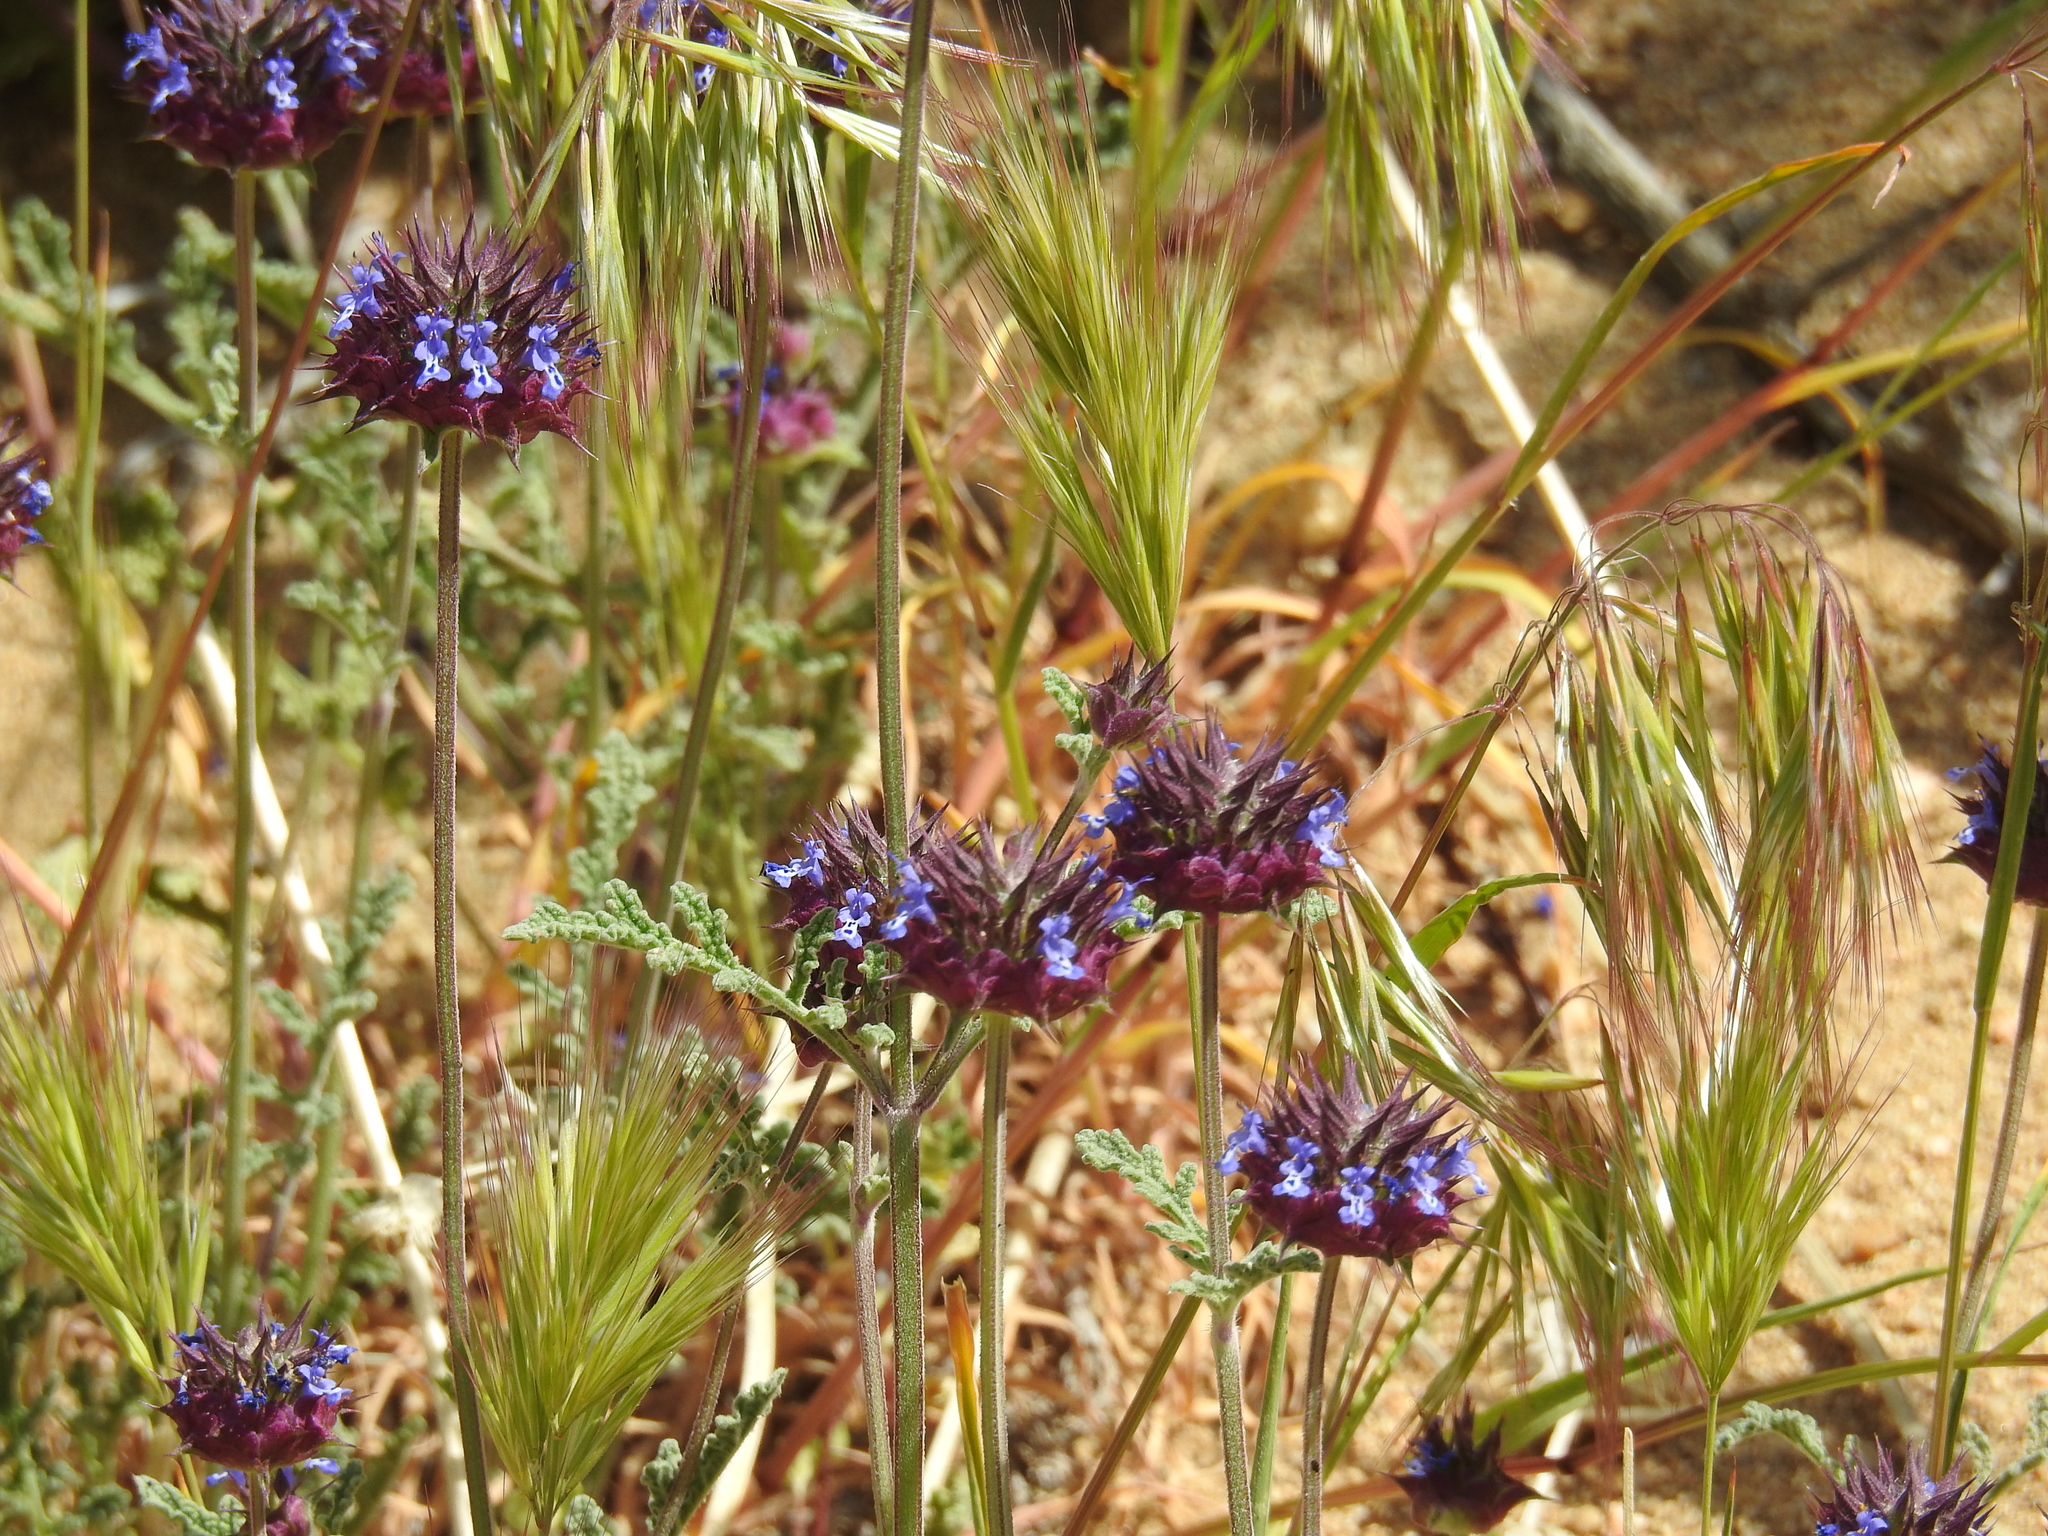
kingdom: Plantae
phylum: Tracheophyta
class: Magnoliopsida
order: Lamiales
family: Lamiaceae
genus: Salvia
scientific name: Salvia columbariae
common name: Chia
